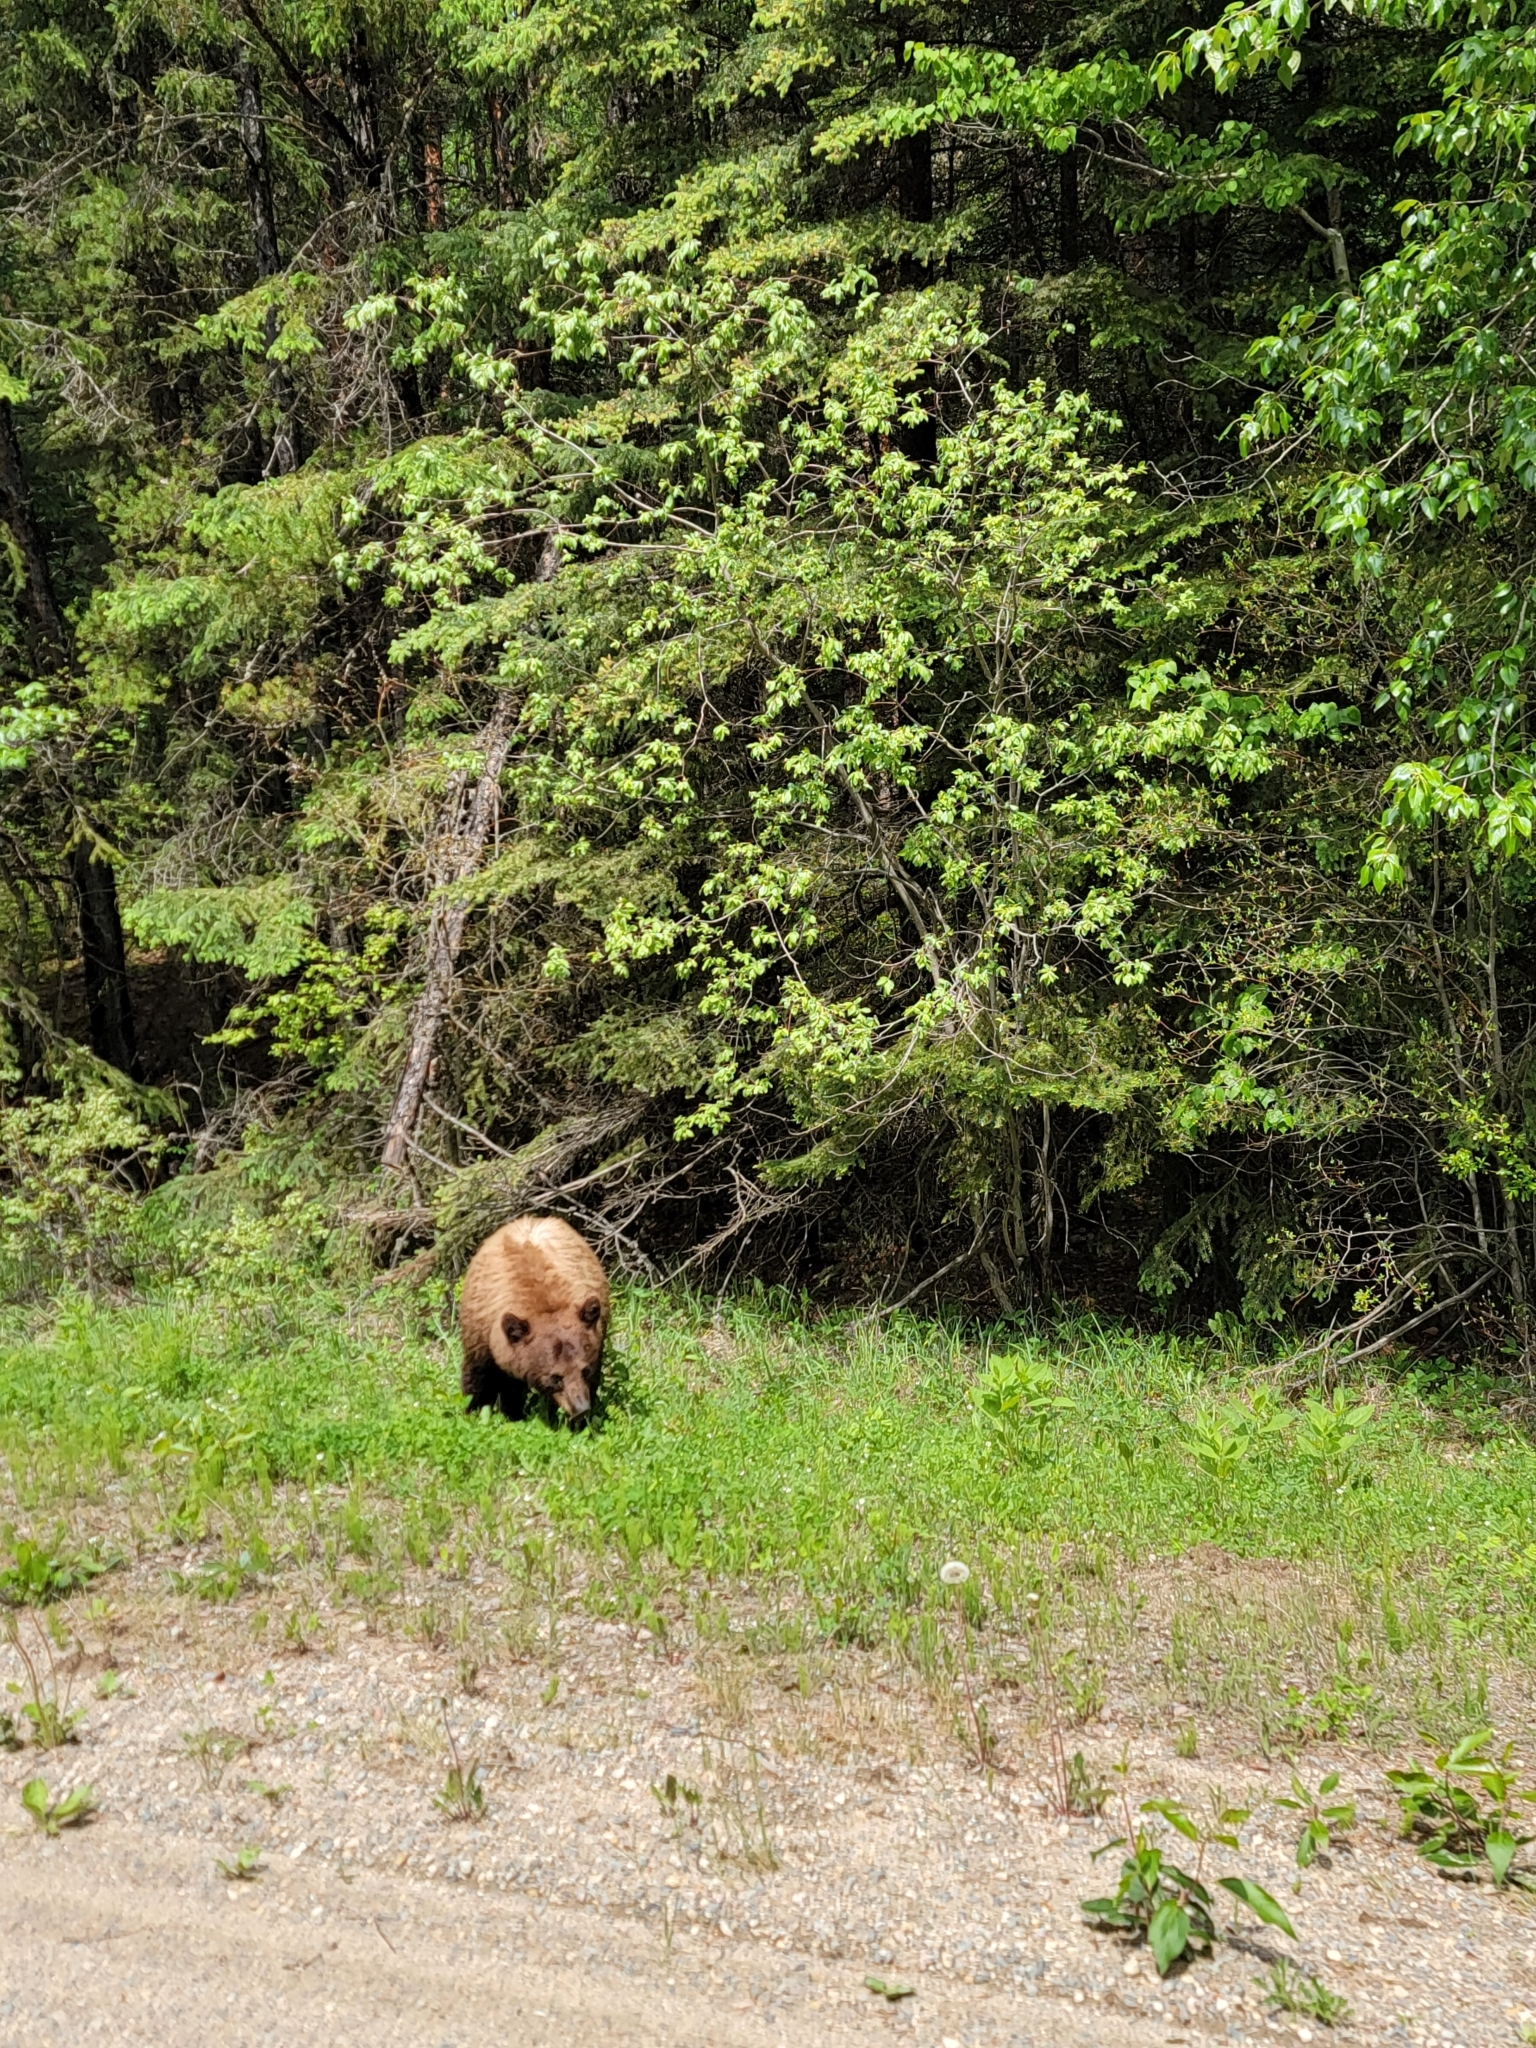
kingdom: Animalia
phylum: Chordata
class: Mammalia
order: Carnivora
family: Ursidae
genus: Ursus
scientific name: Ursus americanus
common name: American black bear
